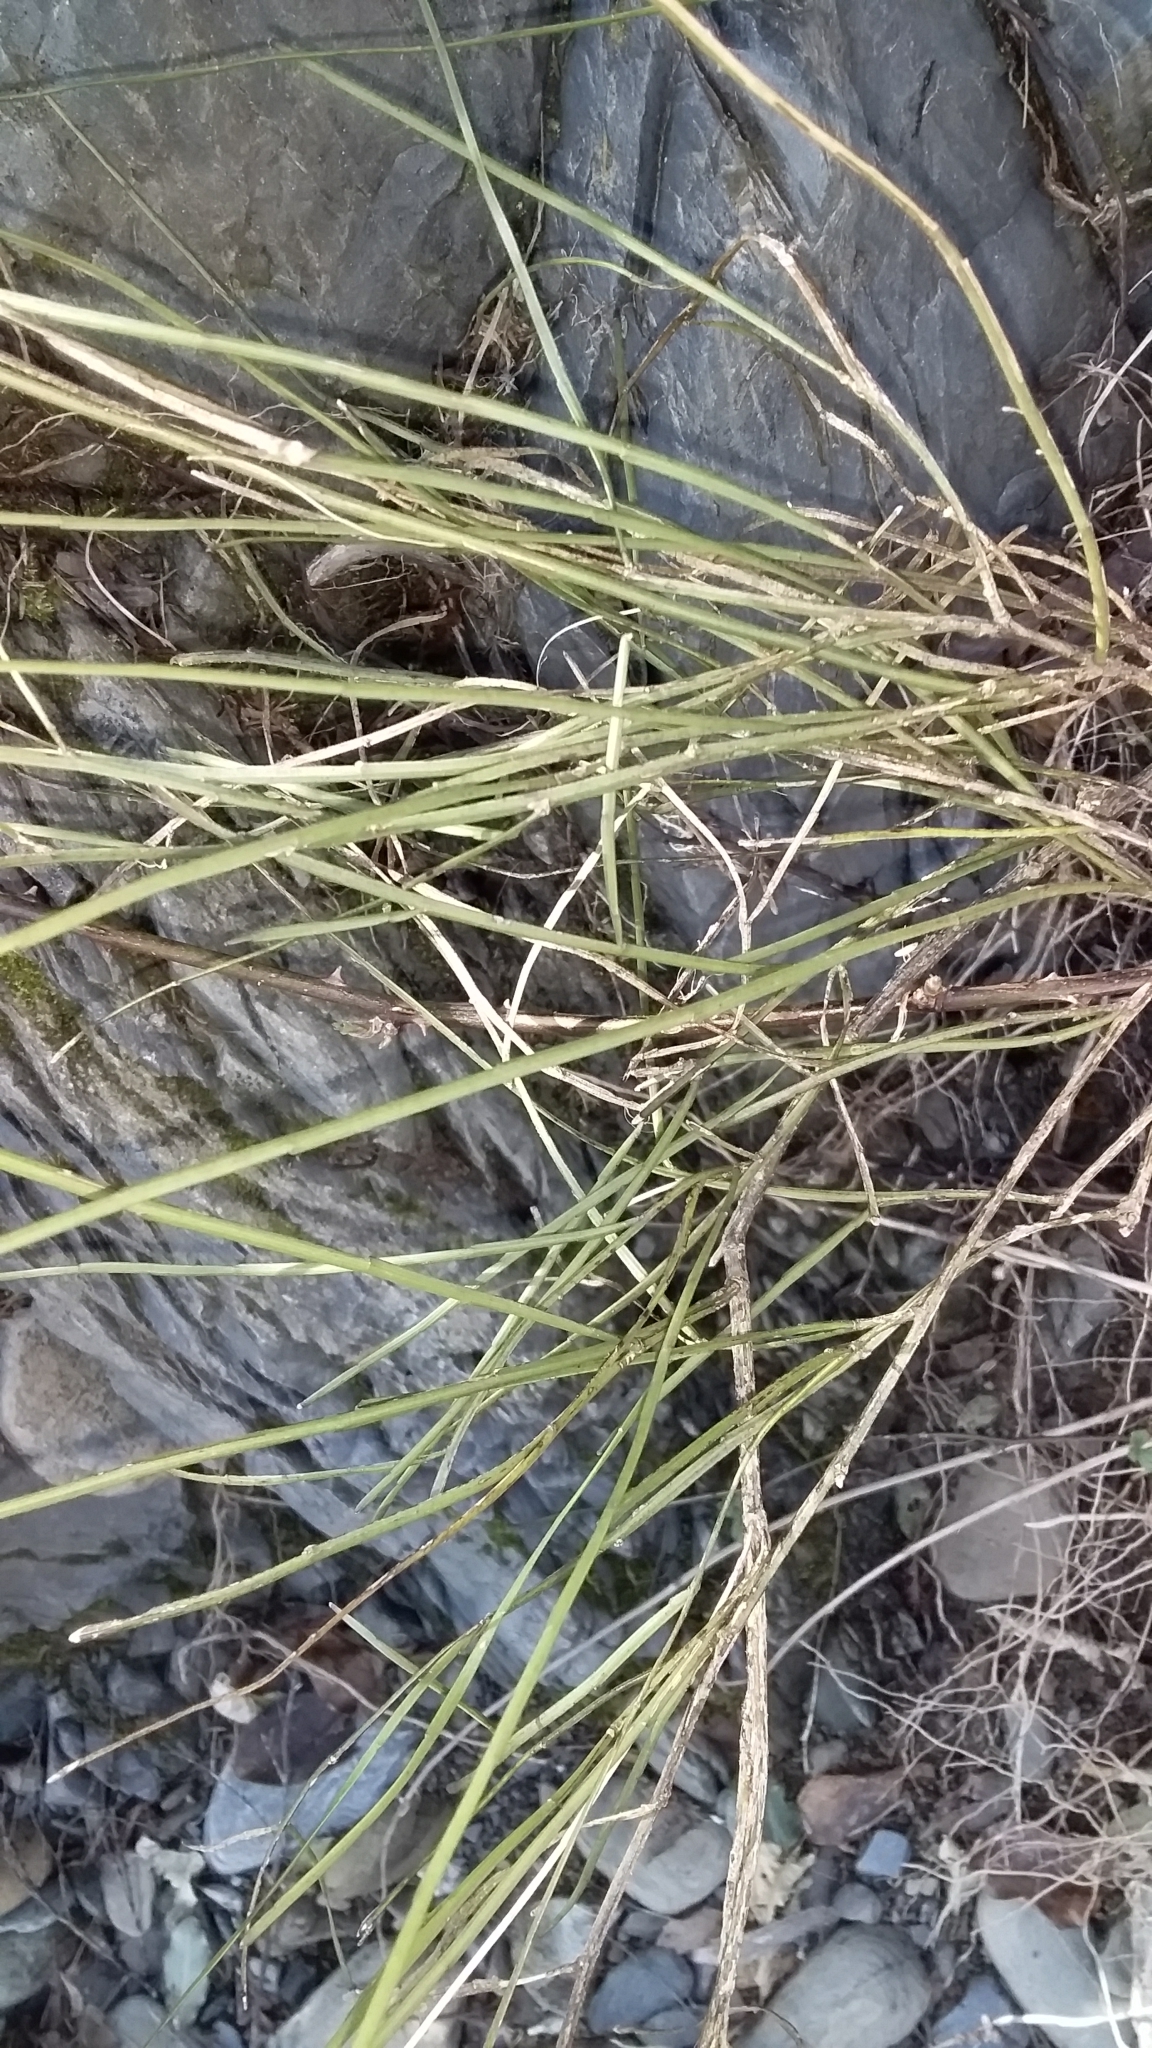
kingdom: Plantae
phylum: Tracheophyta
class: Magnoliopsida
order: Fabales
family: Fabaceae
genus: Carmichaelia
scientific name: Carmichaelia australis
